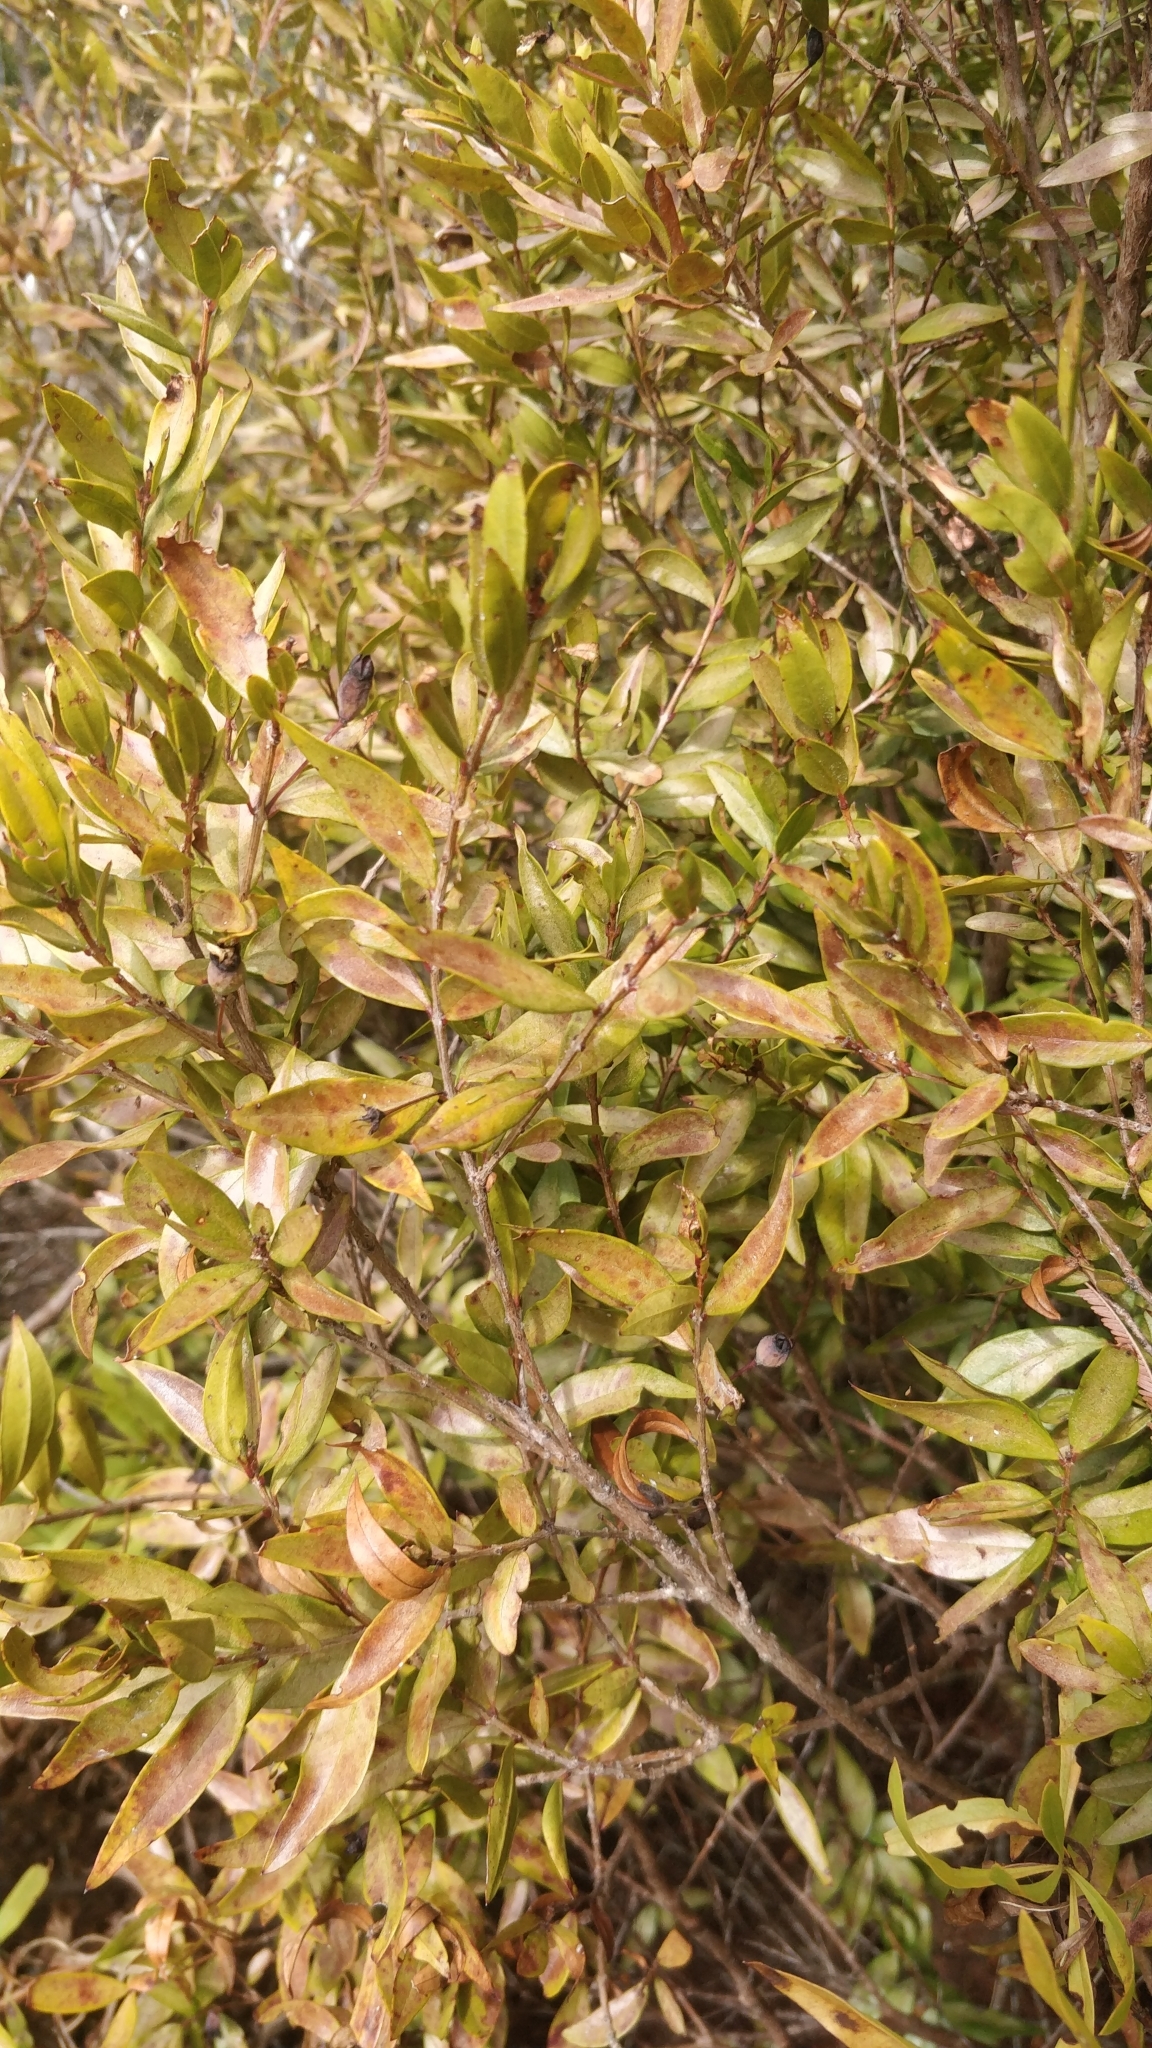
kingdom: Plantae
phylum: Tracheophyta
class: Magnoliopsida
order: Myrtales
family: Myrtaceae
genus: Myrtus
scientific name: Myrtus communis
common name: Myrtle
